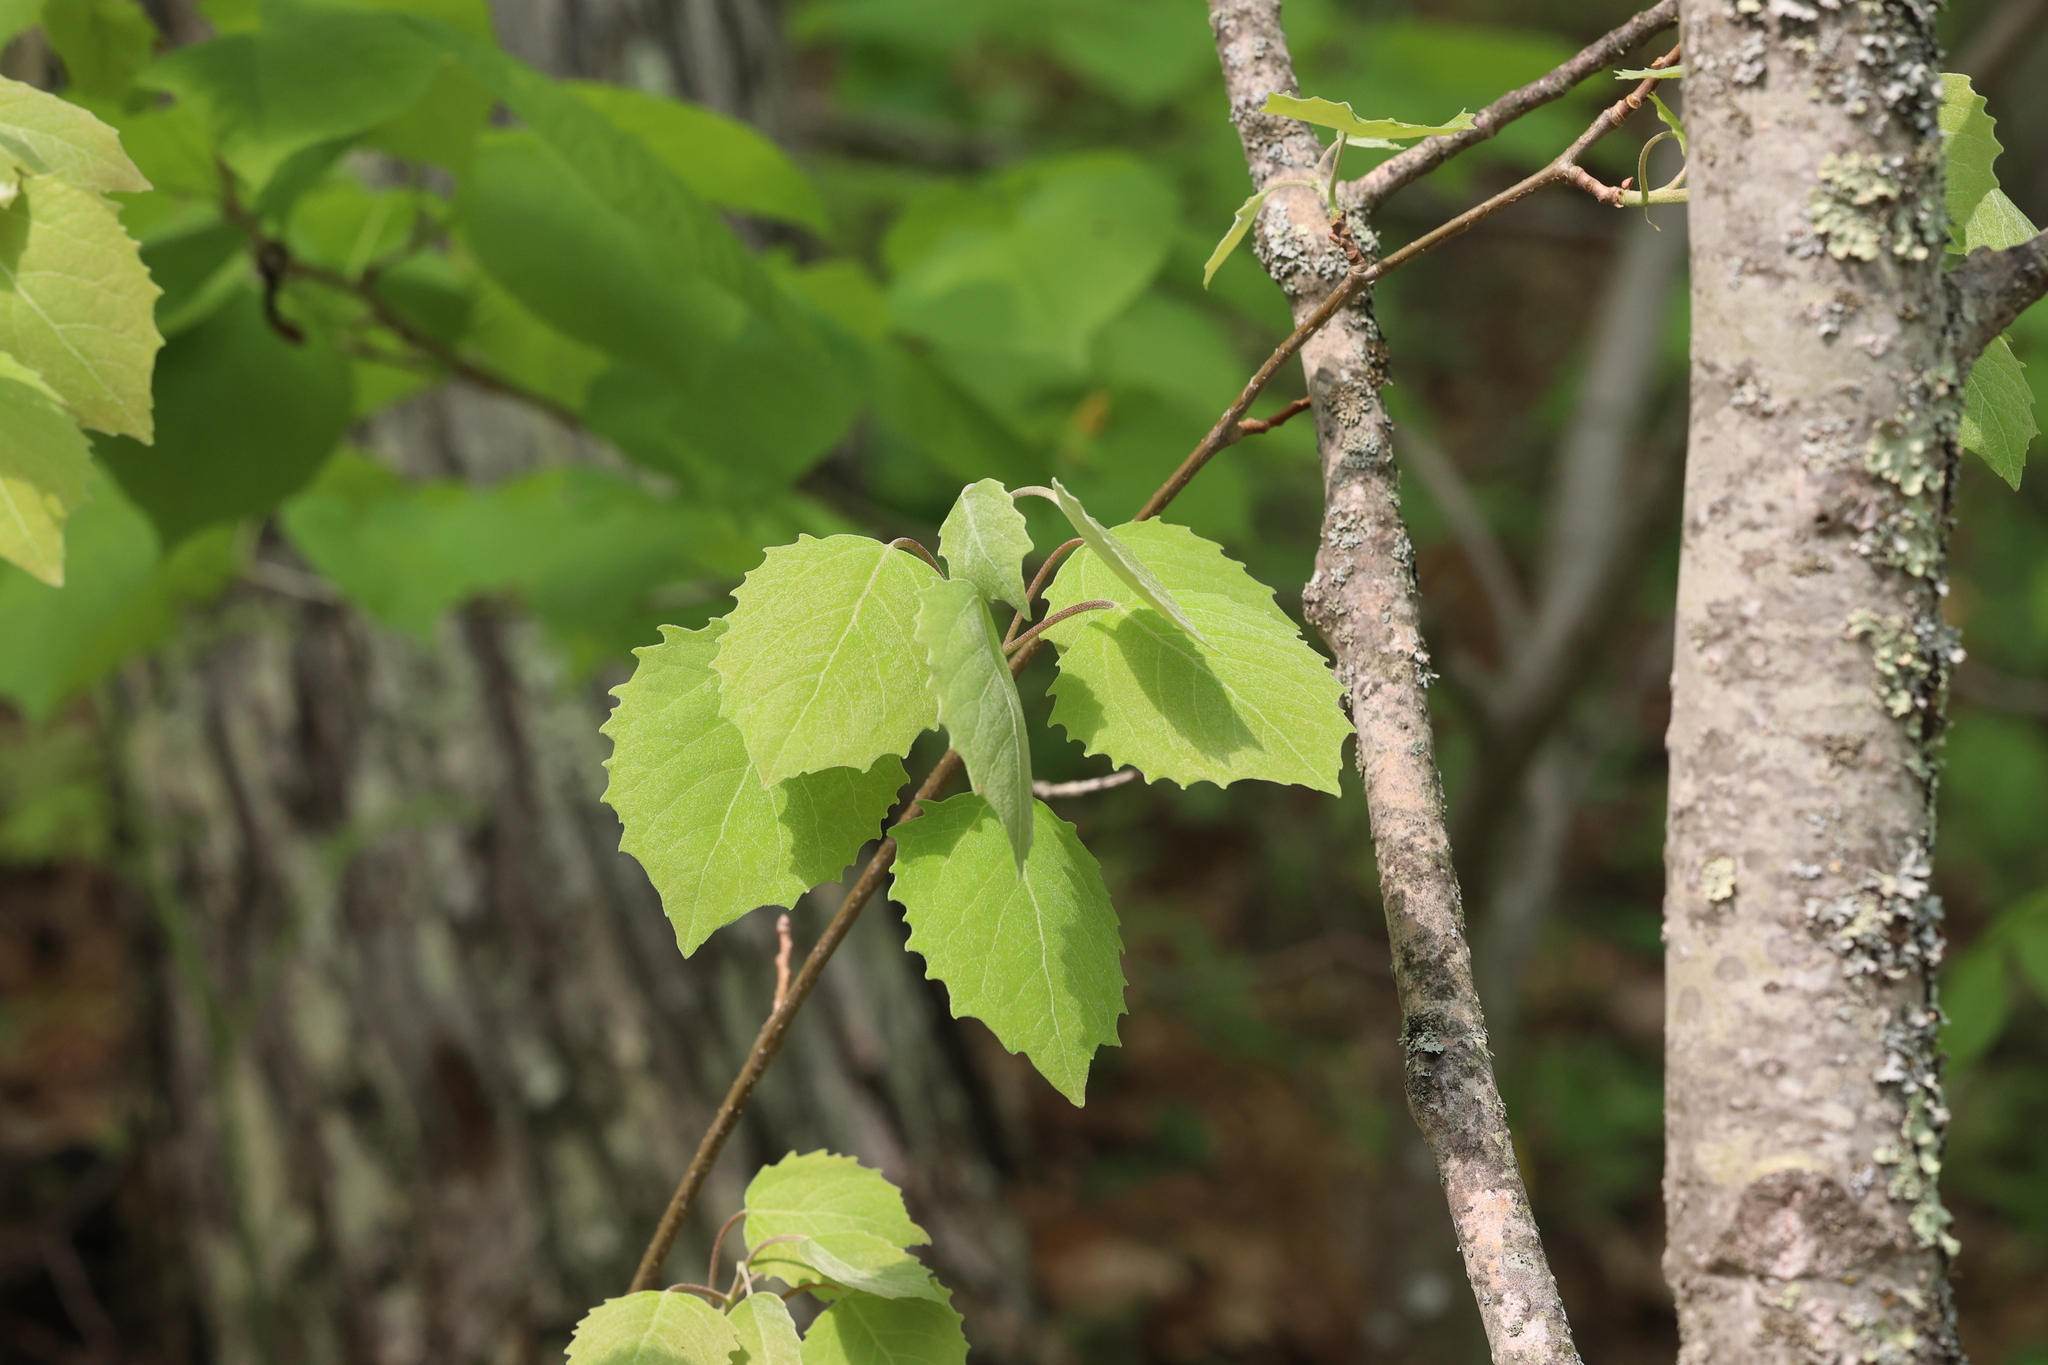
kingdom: Plantae
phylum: Tracheophyta
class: Magnoliopsida
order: Malpighiales
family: Salicaceae
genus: Populus
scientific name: Populus grandidentata
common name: Bigtooth aspen
